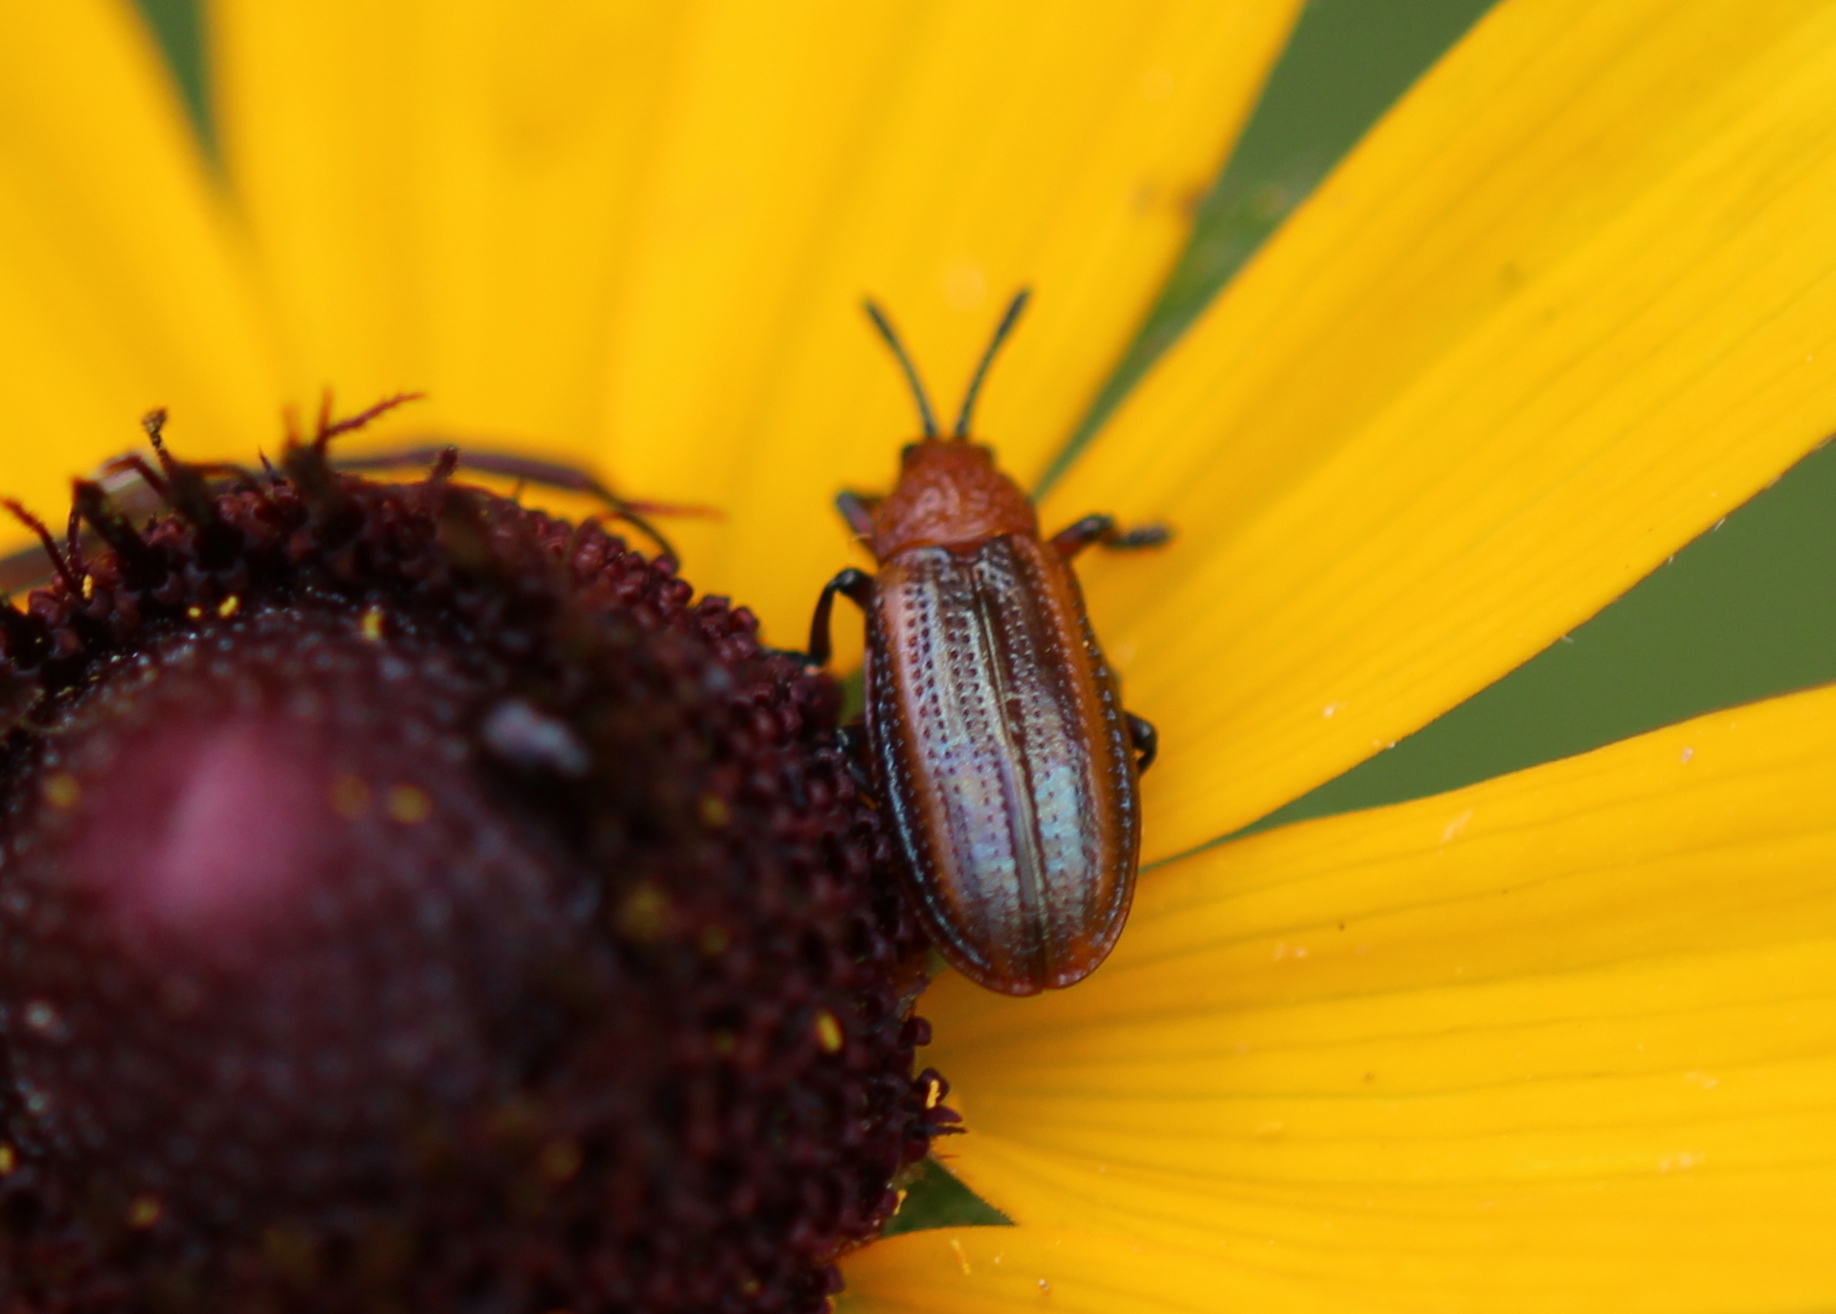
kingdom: Animalia
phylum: Arthropoda
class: Insecta
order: Coleoptera
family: Chrysomelidae
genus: Microrhopala
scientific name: Microrhopala vittata
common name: Goldenrod leaf miner beetle
